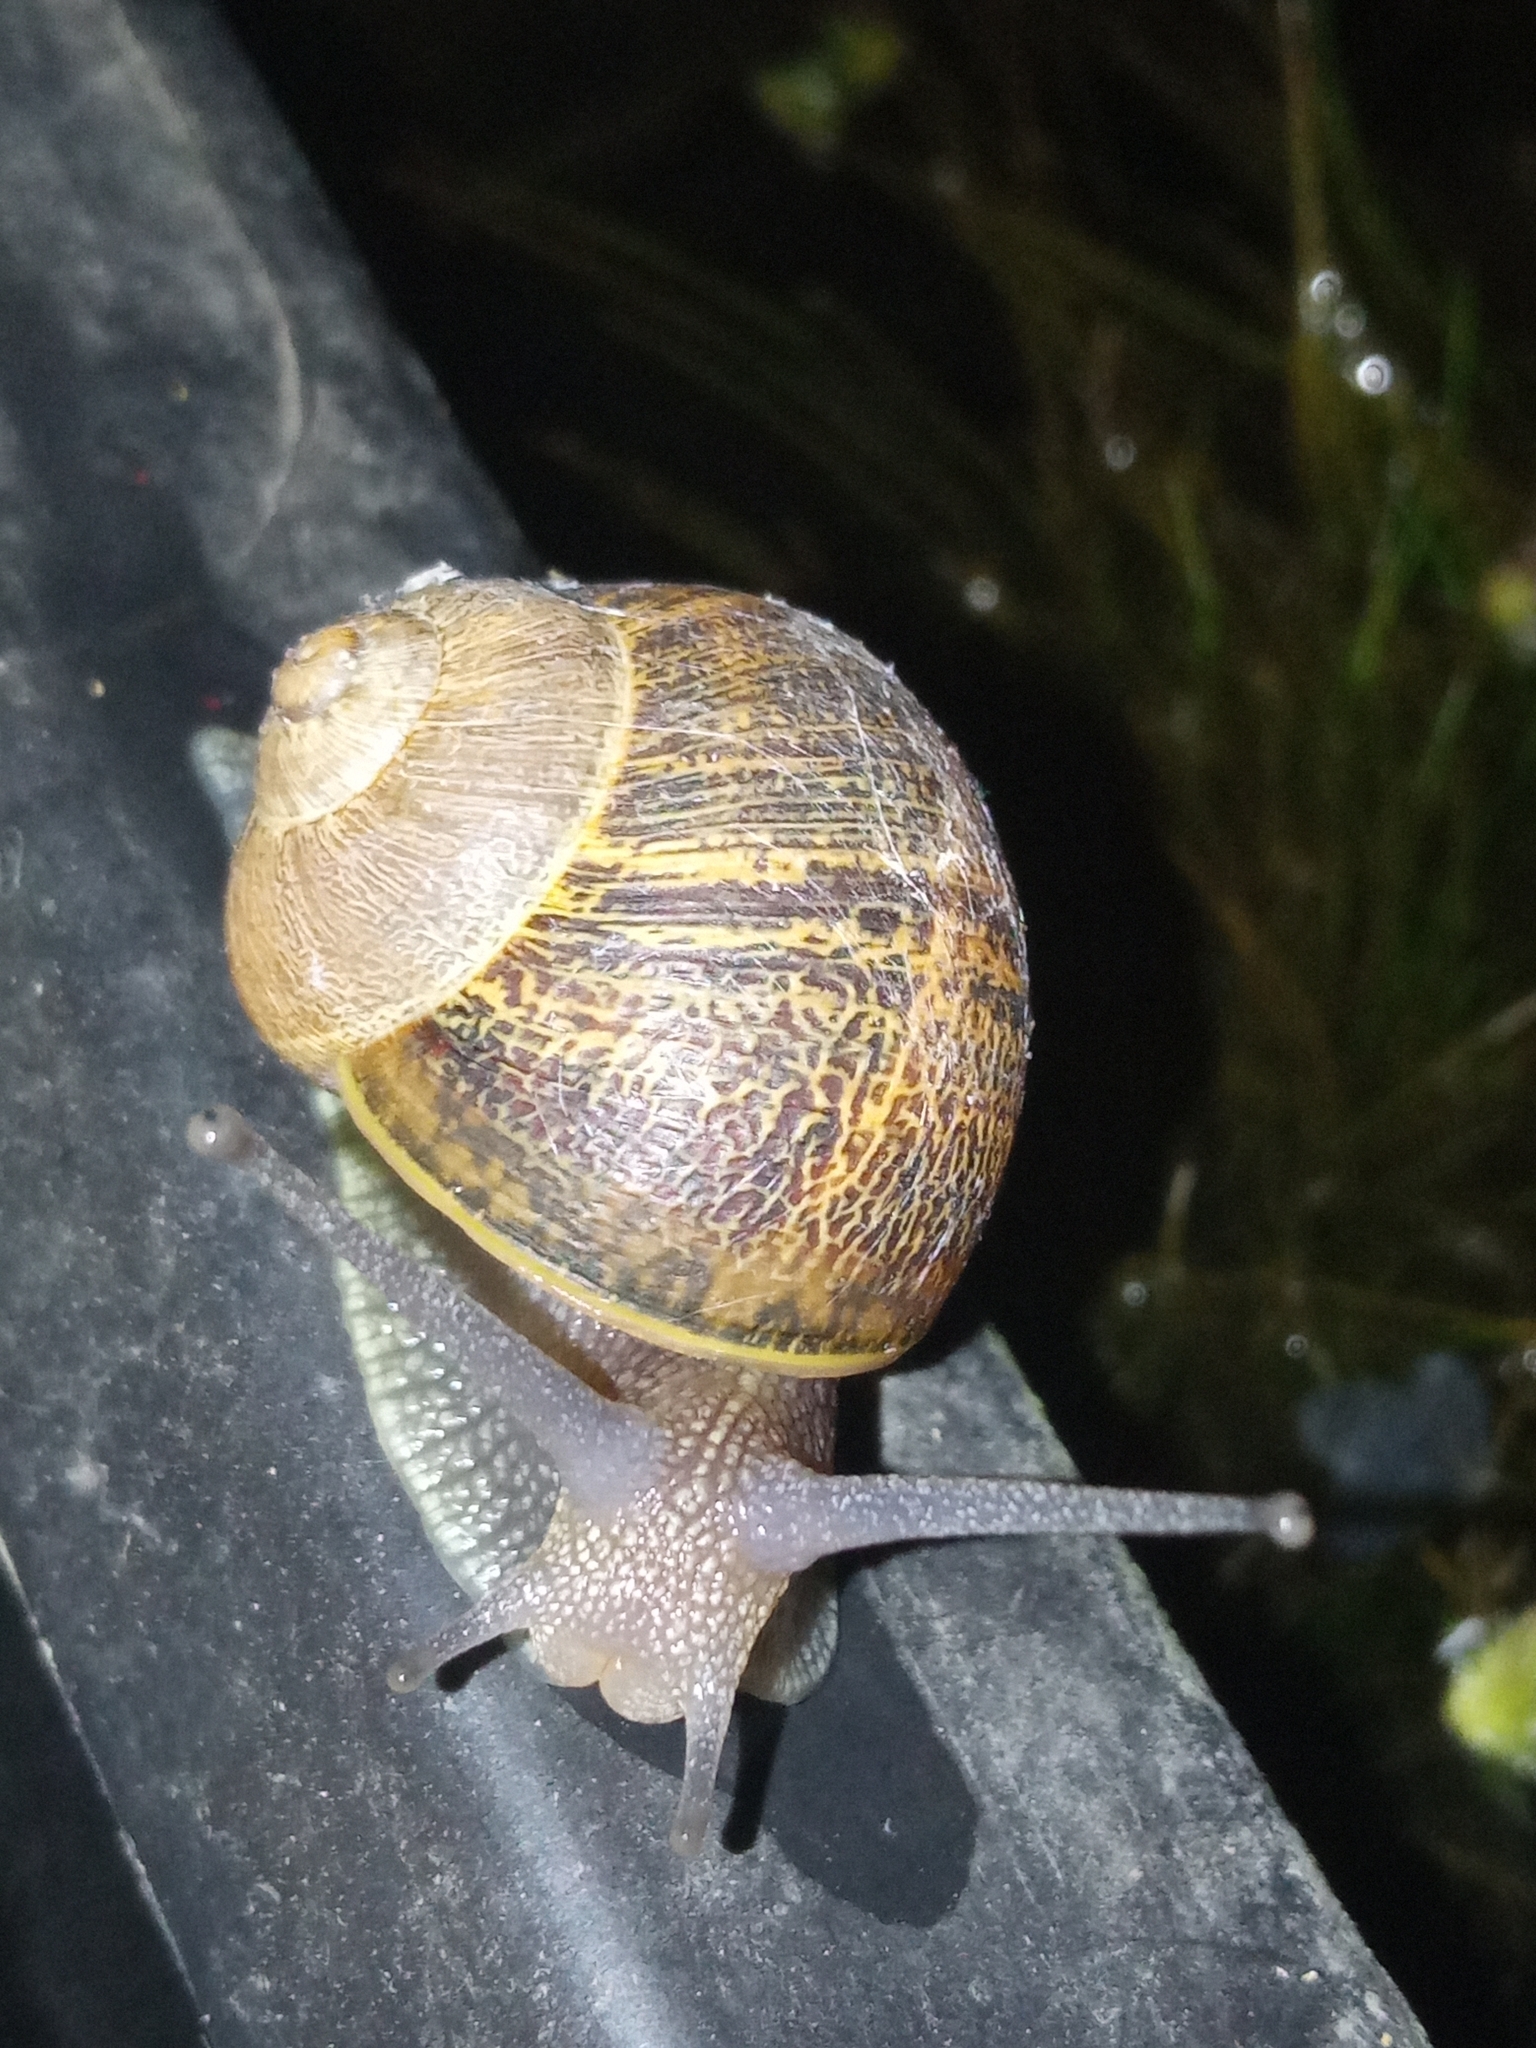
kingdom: Animalia
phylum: Mollusca
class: Gastropoda
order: Stylommatophora
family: Helicidae
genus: Cornu
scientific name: Cornu aspersum
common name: Brown garden snail
